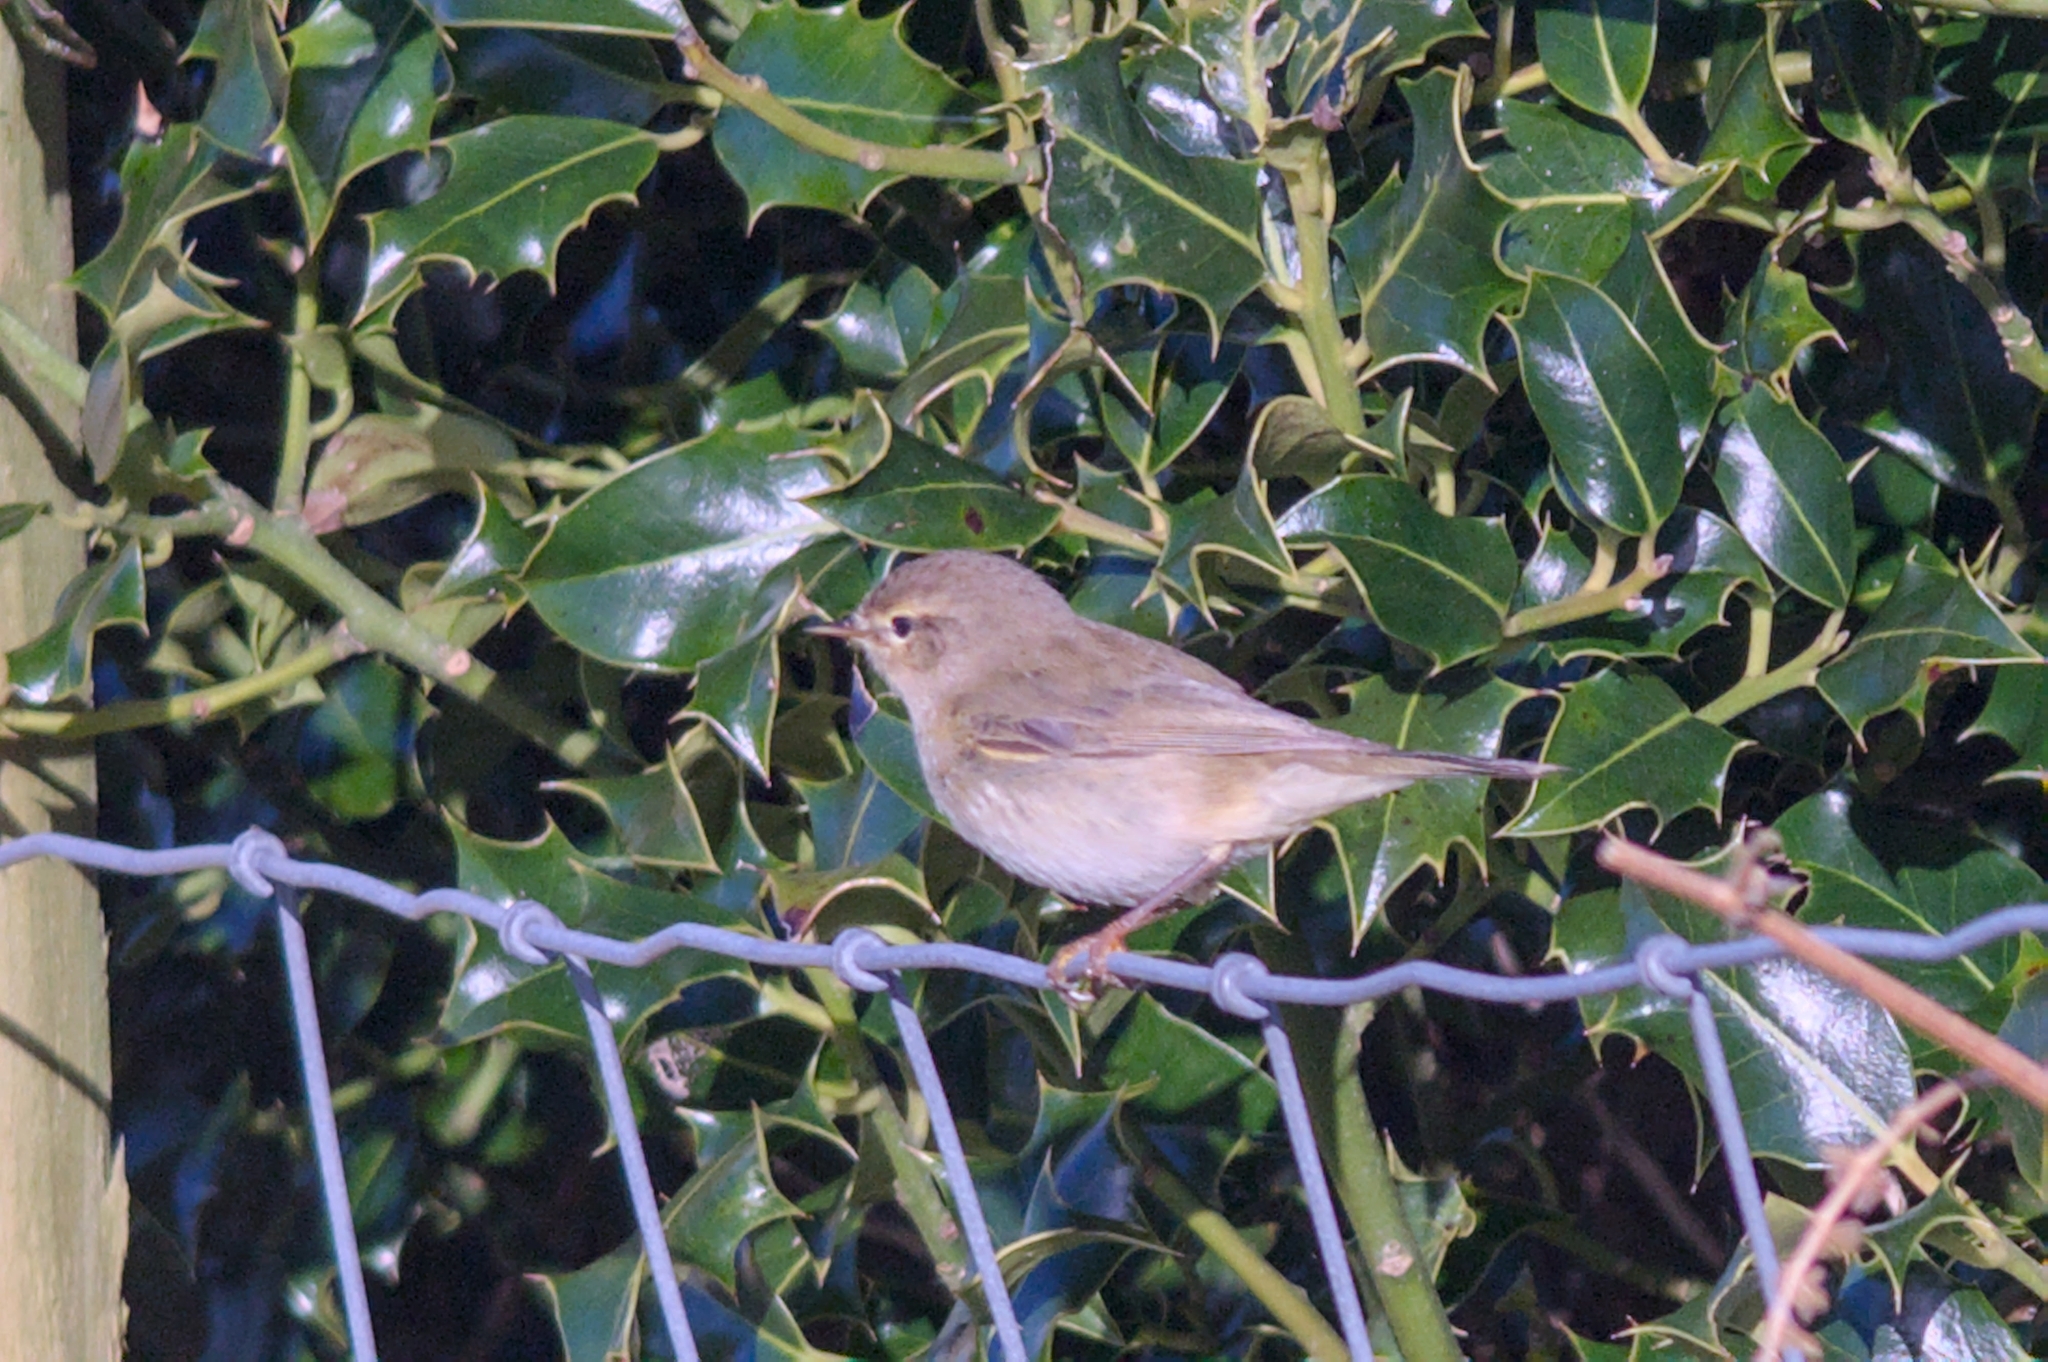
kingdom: Animalia
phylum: Chordata
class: Aves
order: Passeriformes
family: Phylloscopidae
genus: Phylloscopus
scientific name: Phylloscopus collybita
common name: Common chiffchaff
